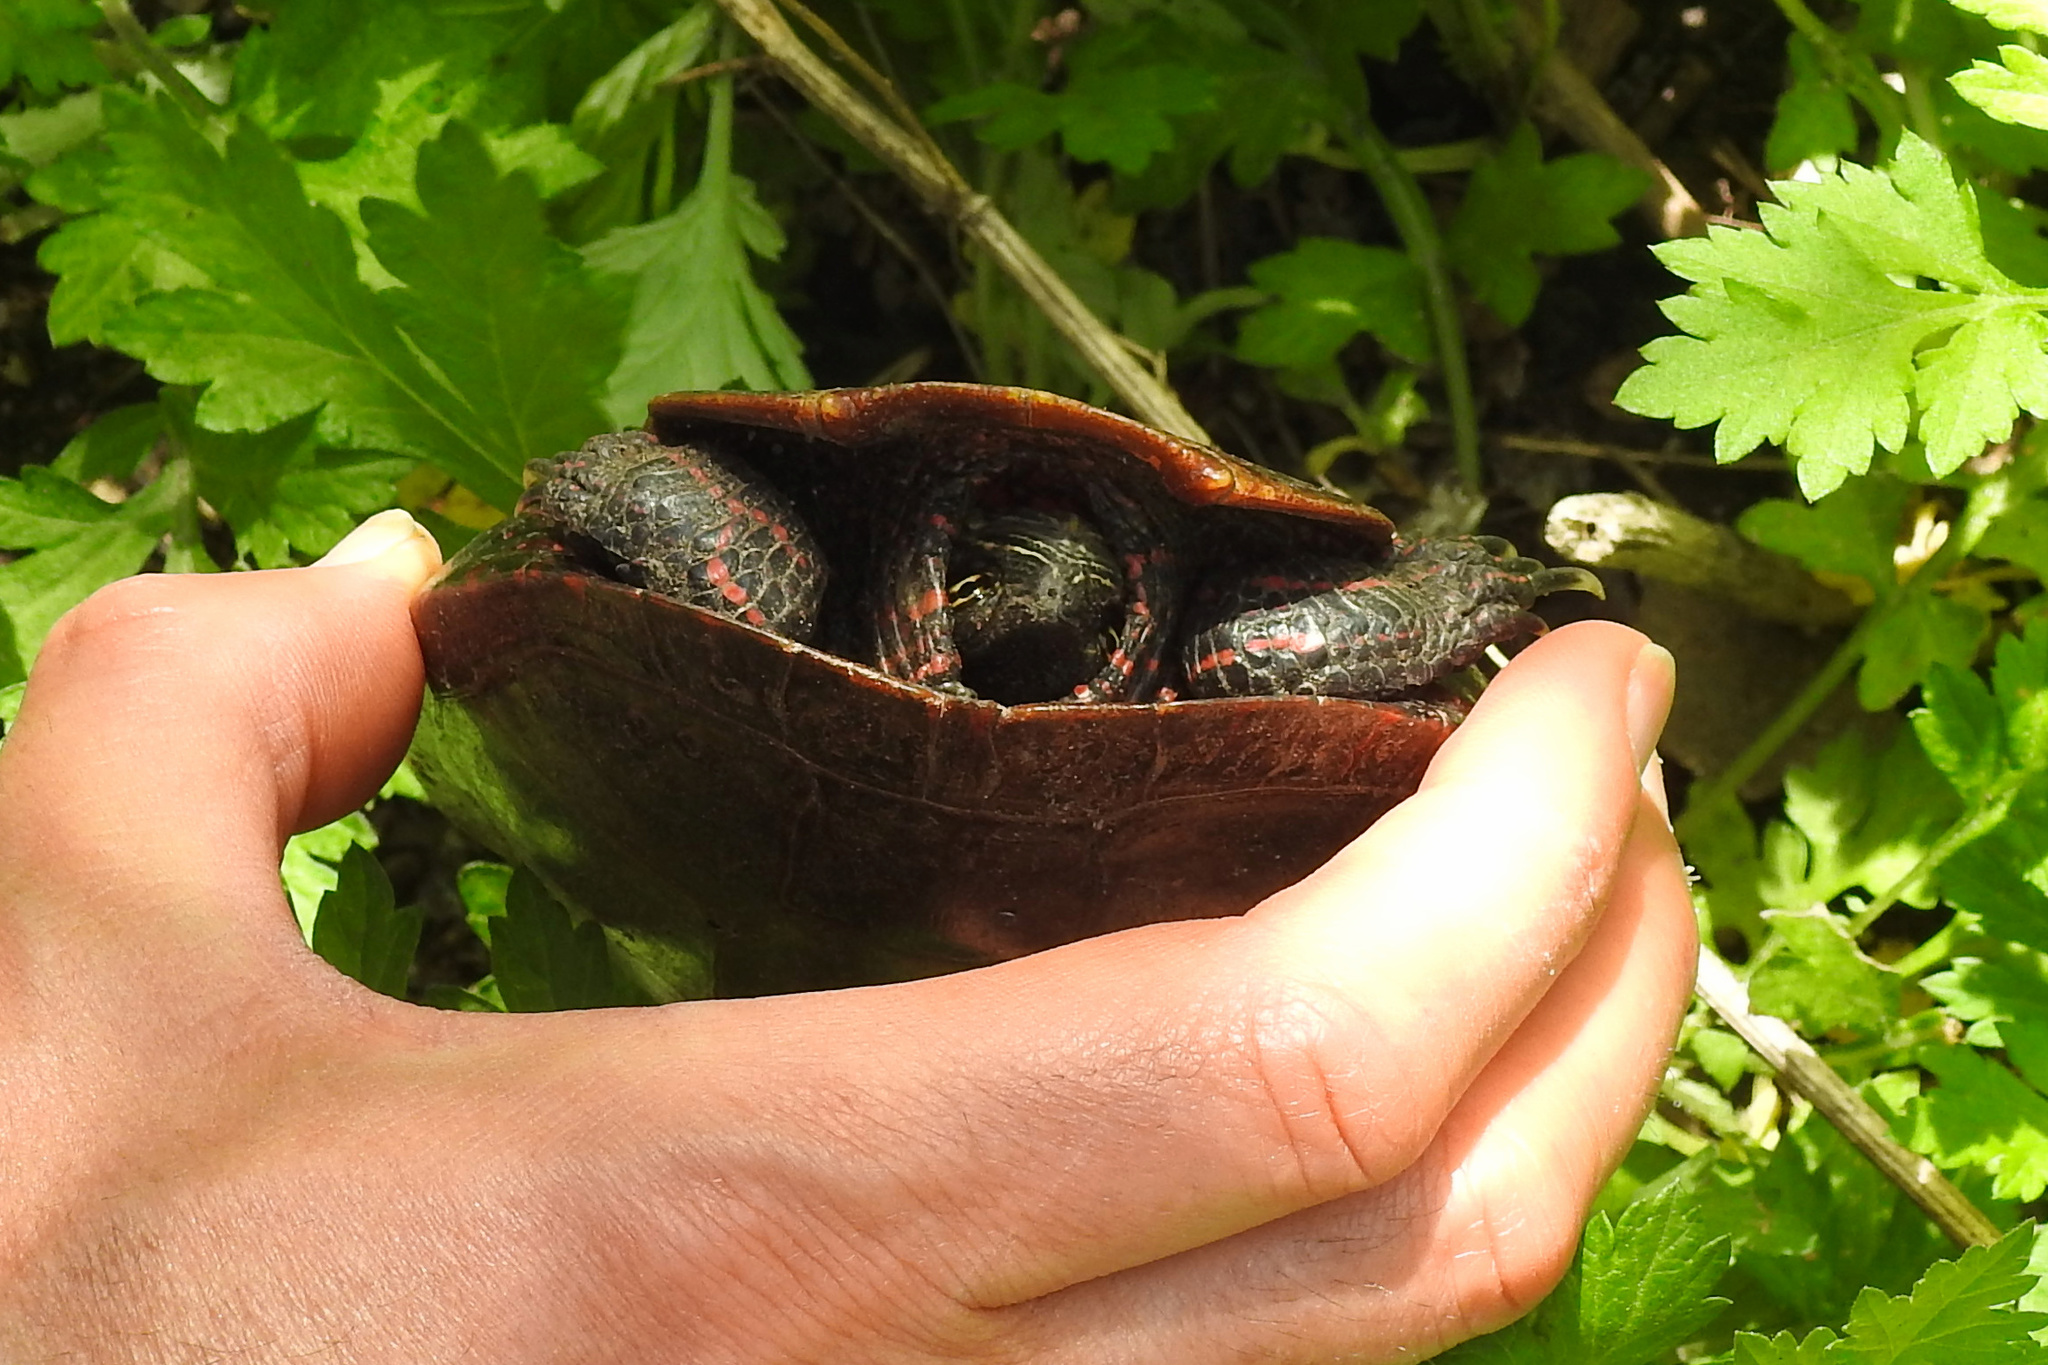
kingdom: Animalia
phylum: Chordata
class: Testudines
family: Emydidae
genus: Chrysemys
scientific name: Chrysemys picta
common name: Painted turtle
